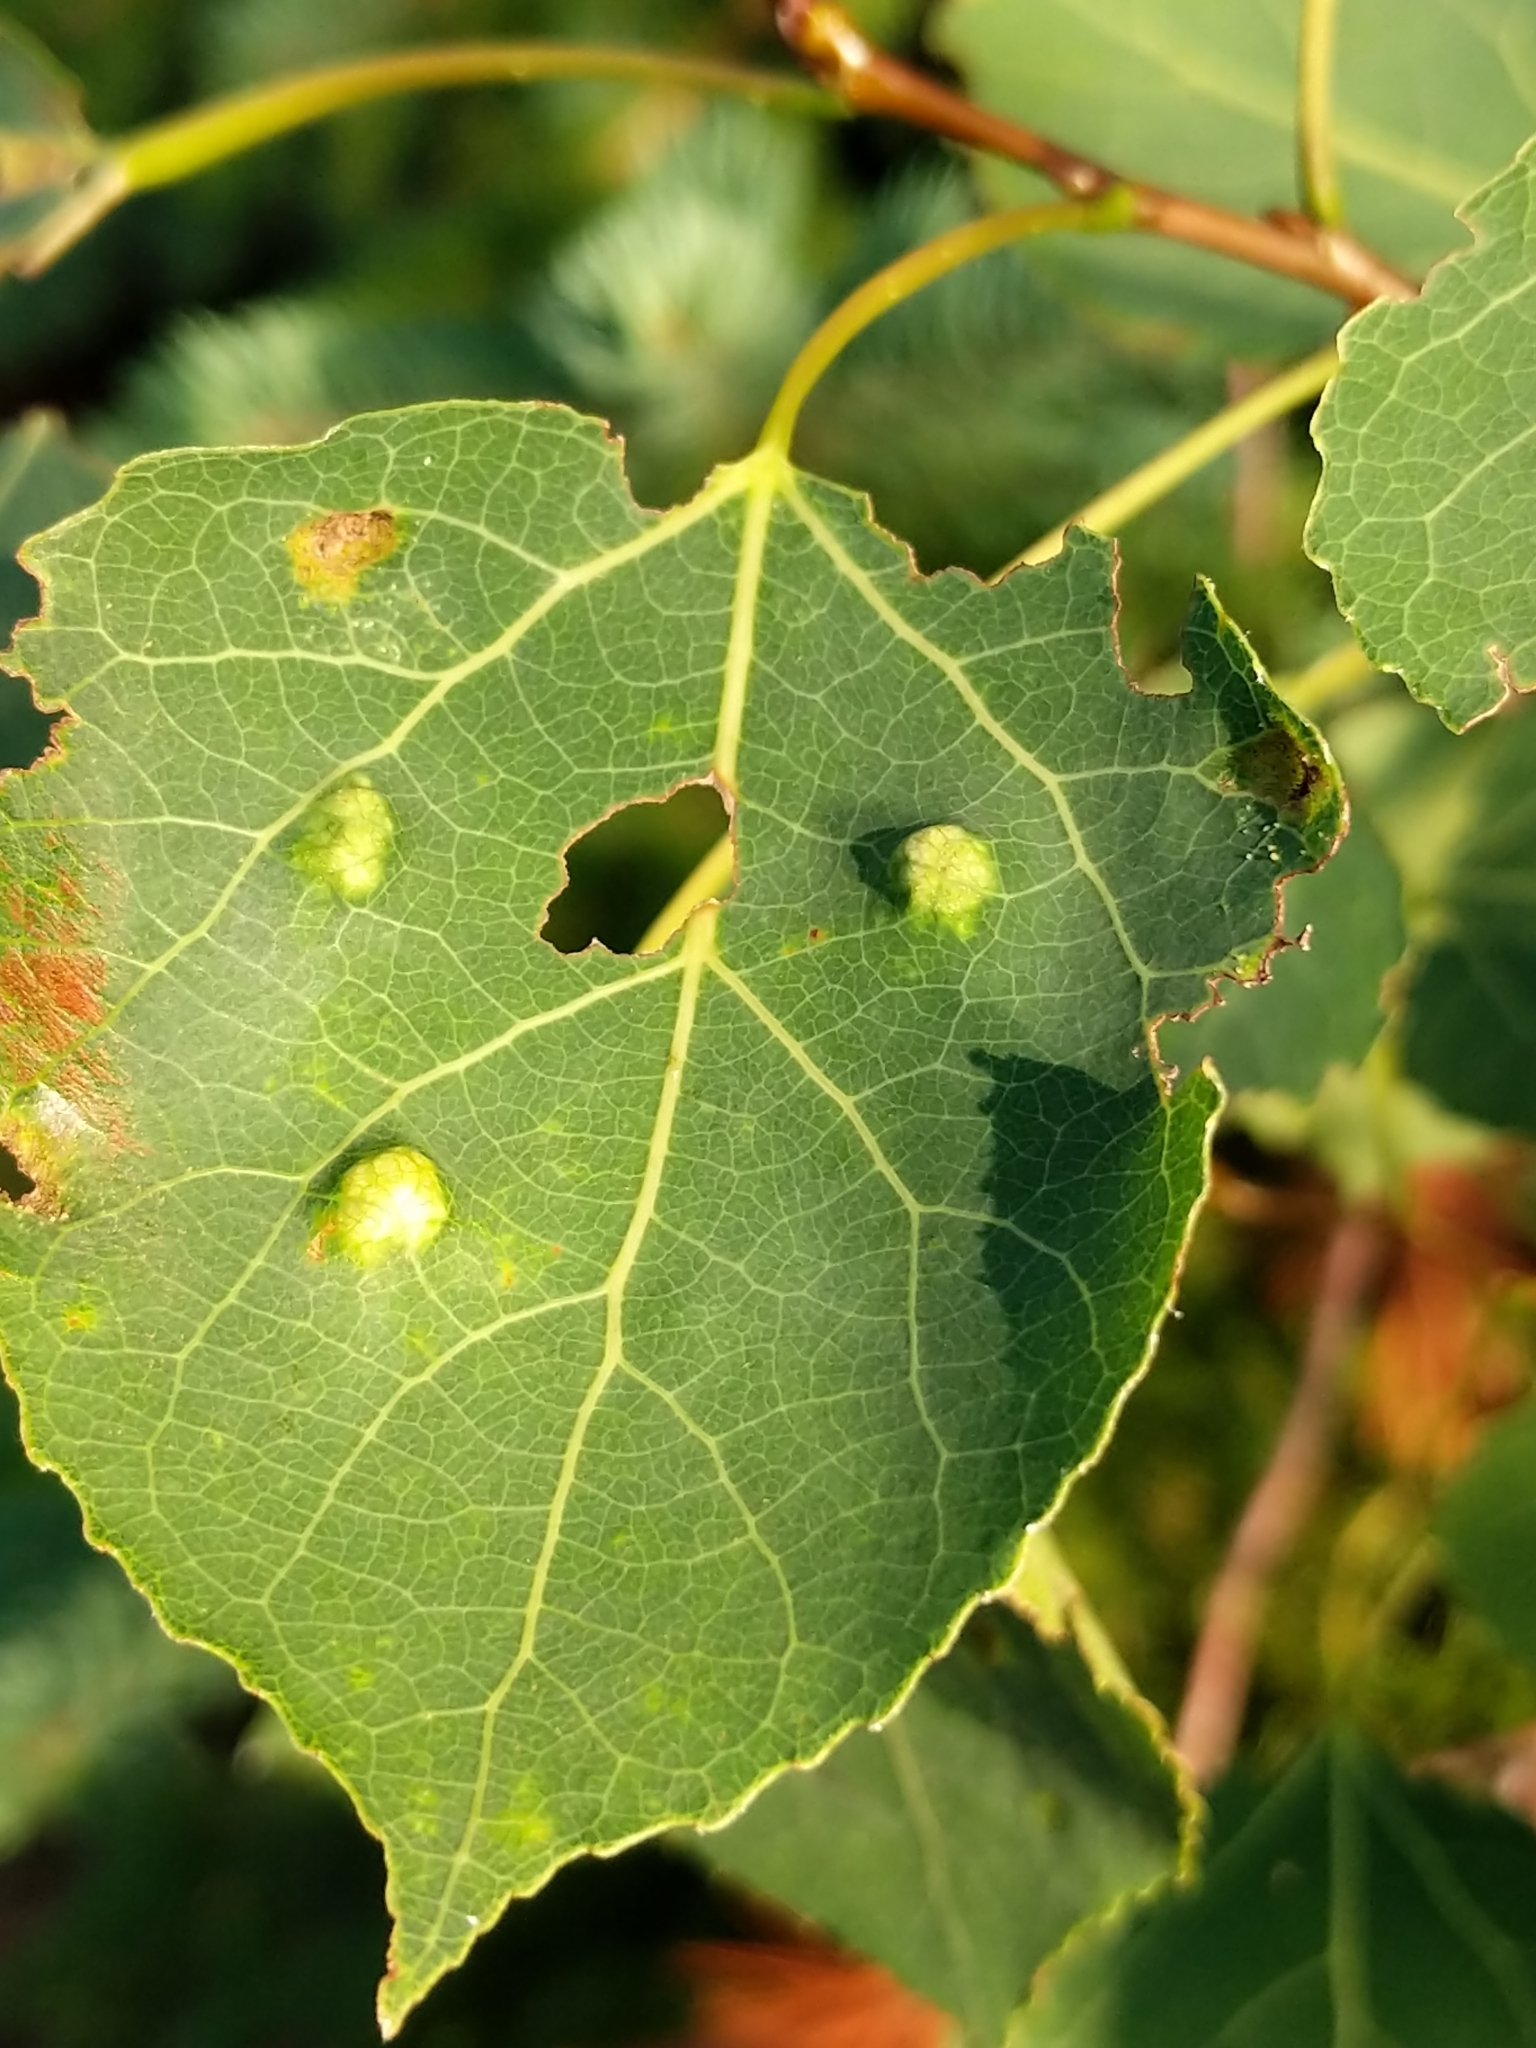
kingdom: Animalia
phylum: Arthropoda
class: Arachnida
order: Trombidiformes
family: Eriophyidae
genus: Phyllocoptes
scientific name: Phyllocoptes
